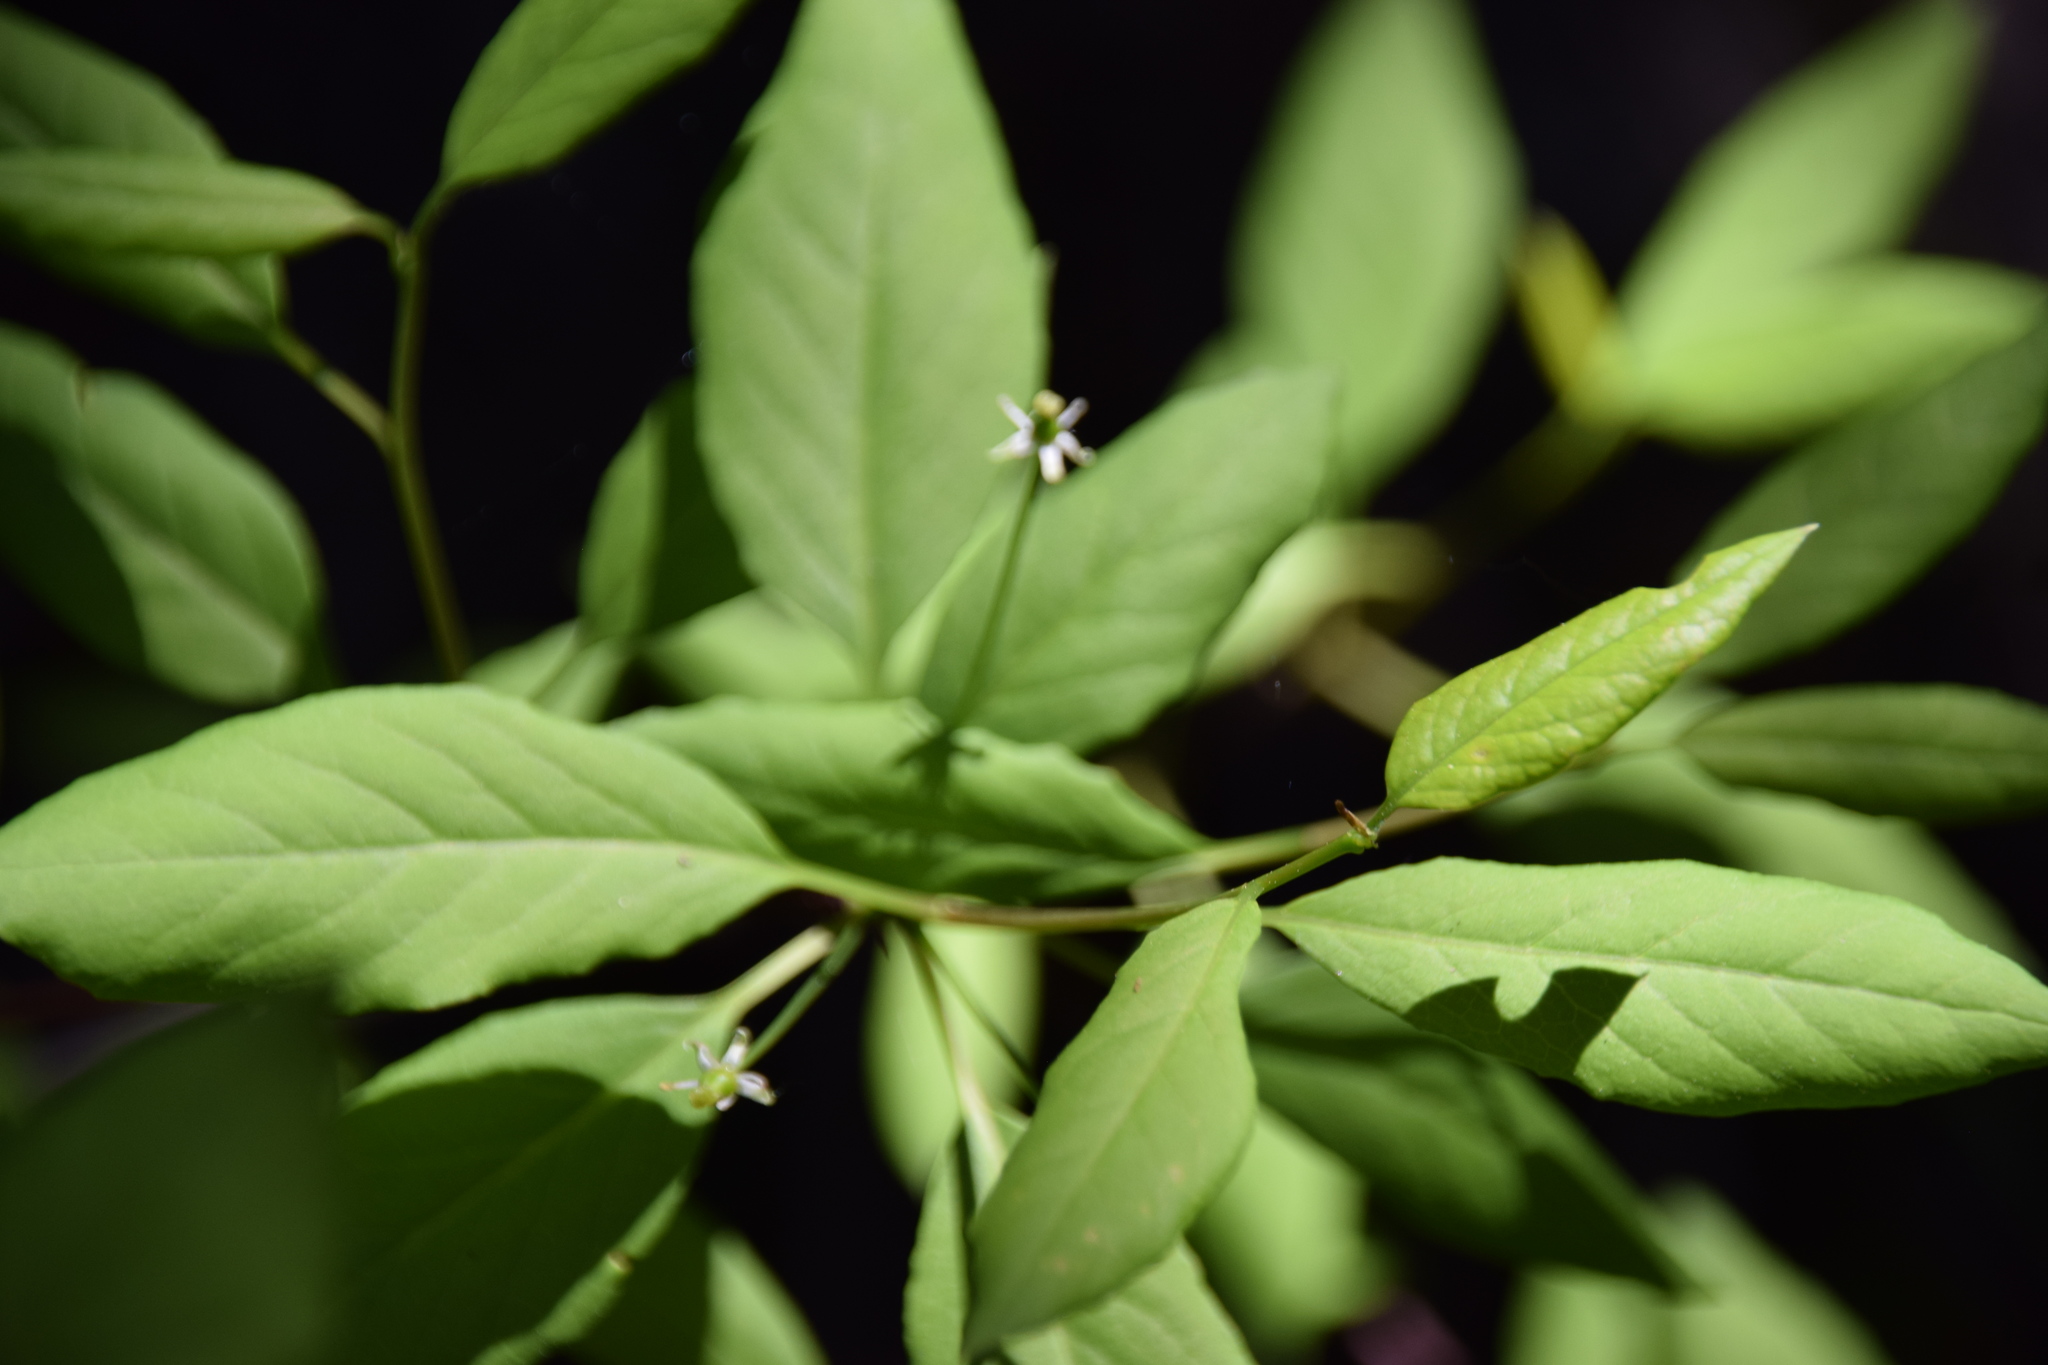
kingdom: Plantae
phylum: Tracheophyta
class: Magnoliopsida
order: Aquifoliales
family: Aquifoliaceae
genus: Ilex
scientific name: Ilex mucronata
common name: Catberry
